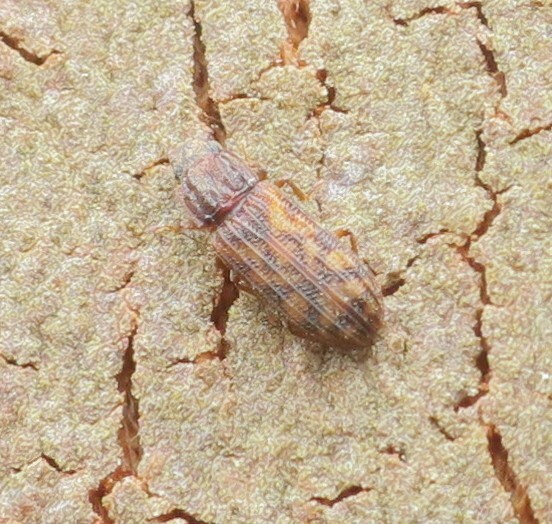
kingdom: Animalia
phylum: Arthropoda
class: Insecta
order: Coleoptera
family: Zopheridae
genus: Bitoma
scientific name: Bitoma insularis
